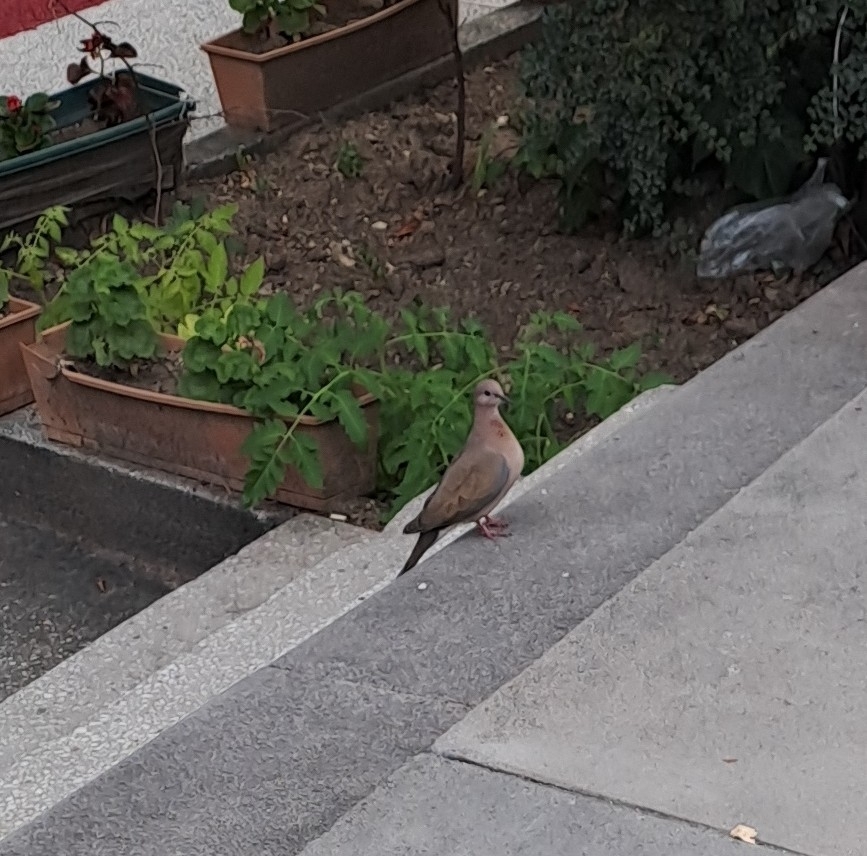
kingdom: Animalia
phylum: Chordata
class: Aves
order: Columbiformes
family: Columbidae
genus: Spilopelia
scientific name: Spilopelia senegalensis
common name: Laughing dove
